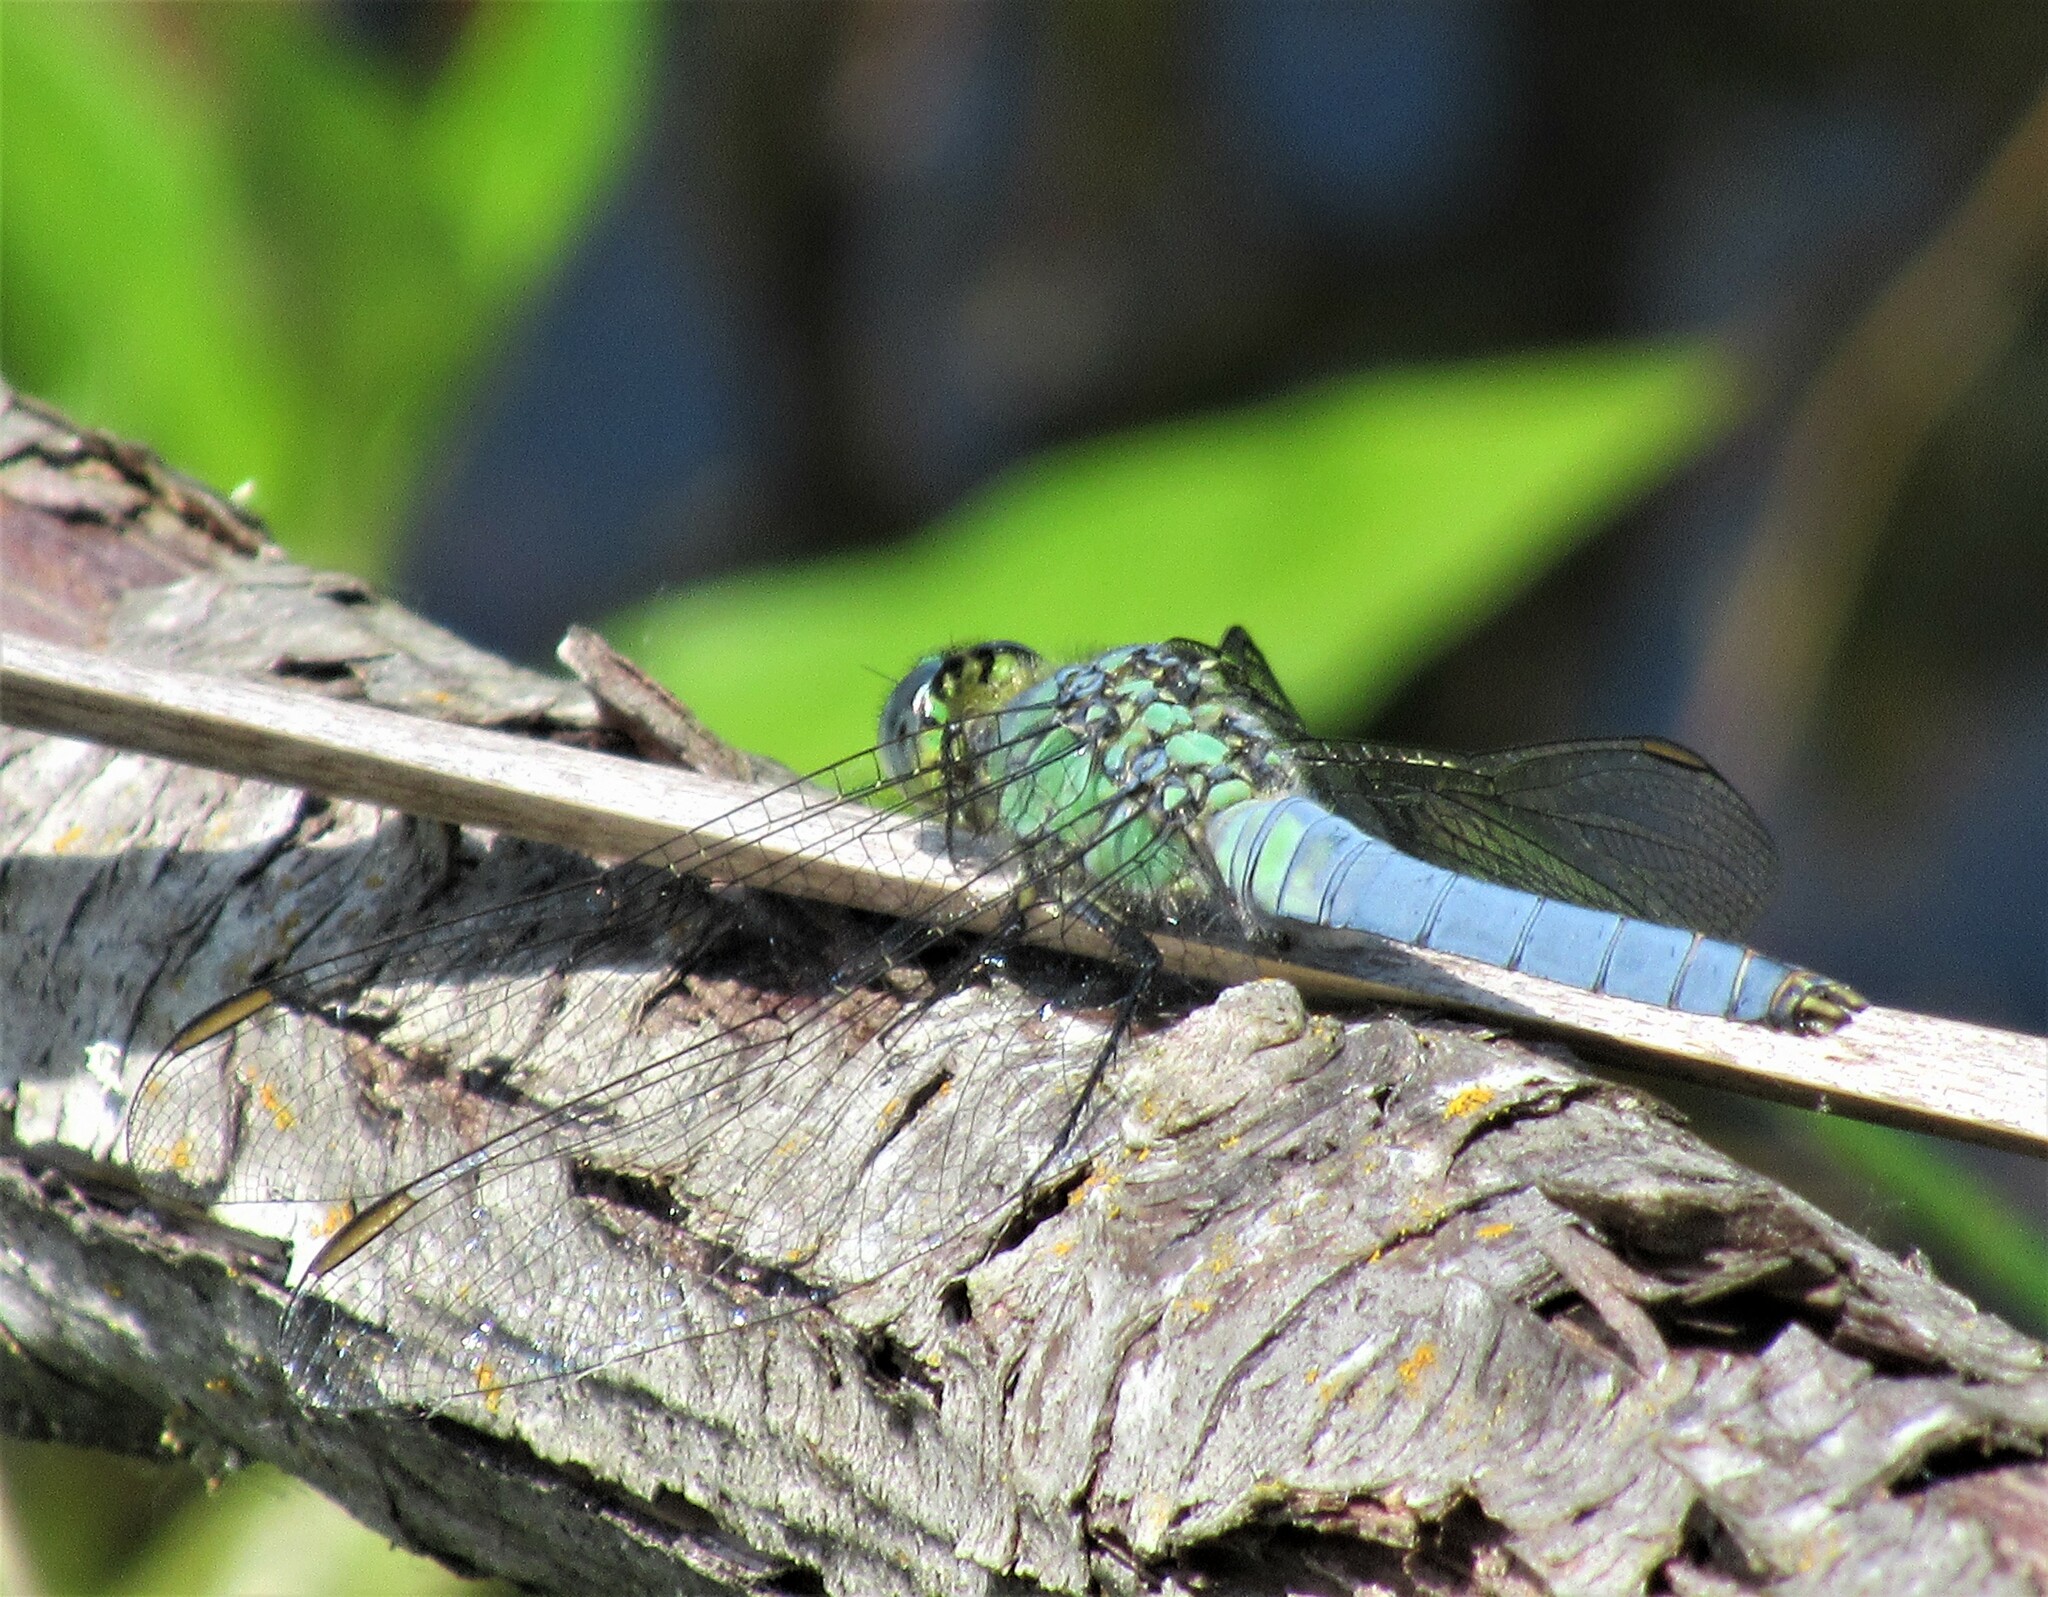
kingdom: Animalia
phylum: Arthropoda
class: Insecta
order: Odonata
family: Libellulidae
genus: Erythemis
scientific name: Erythemis collocata
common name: Western pondhawk
